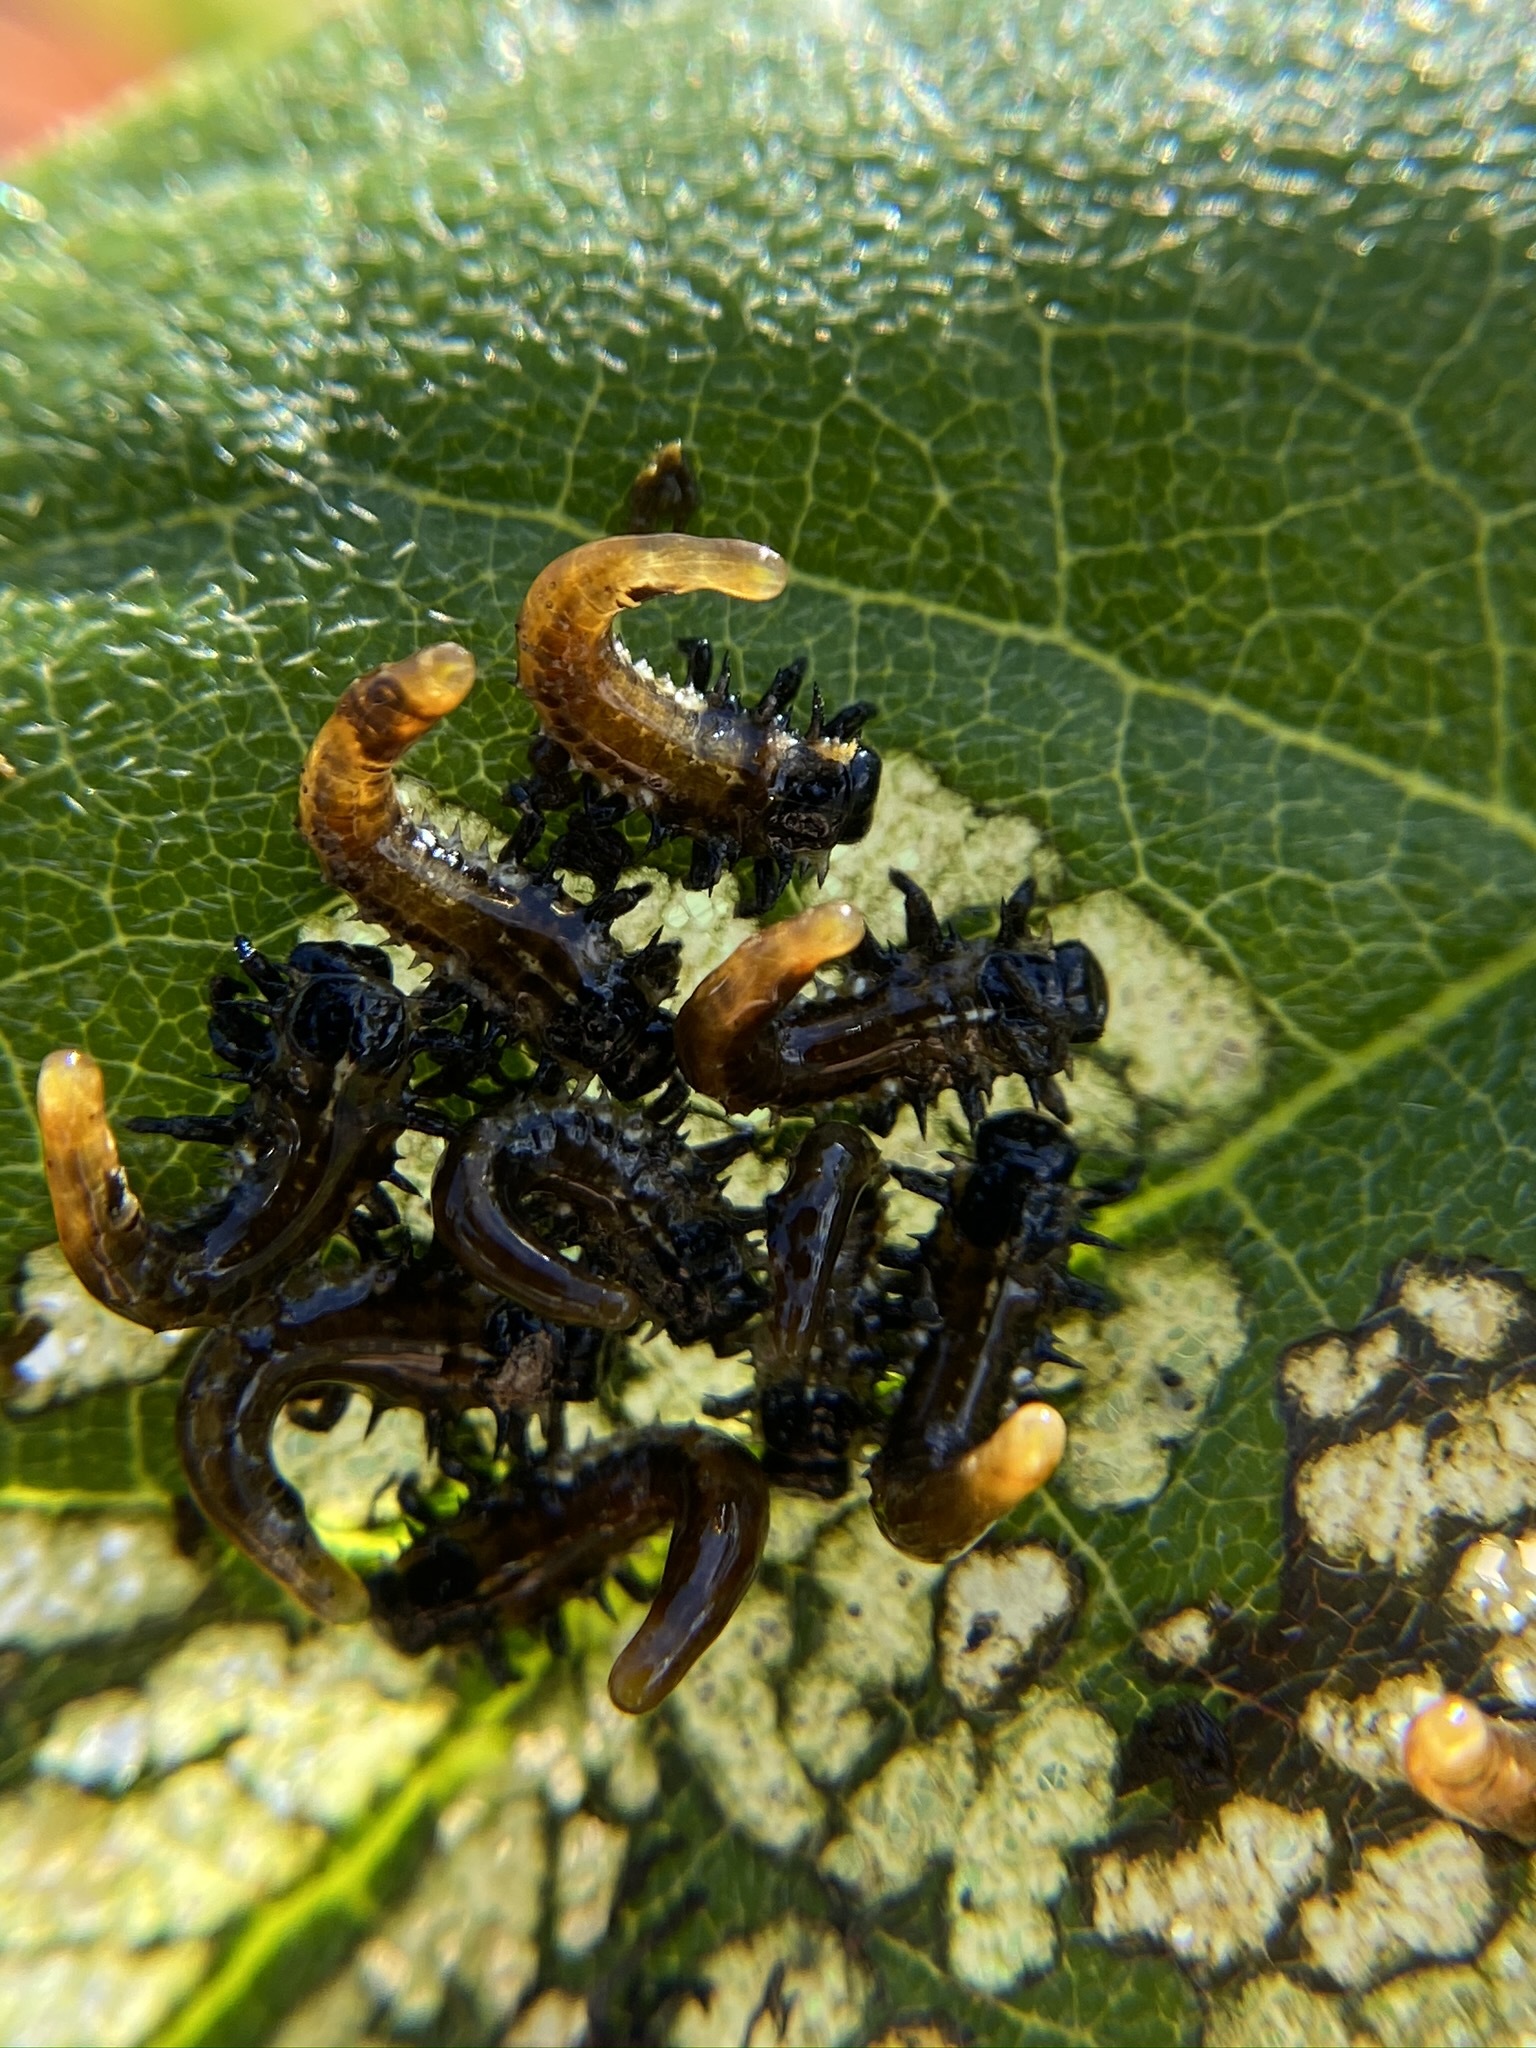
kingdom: Animalia
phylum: Arthropoda
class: Insecta
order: Coleoptera
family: Chrysomelidae
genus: Eurypepla
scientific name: Eurypepla calochroma
